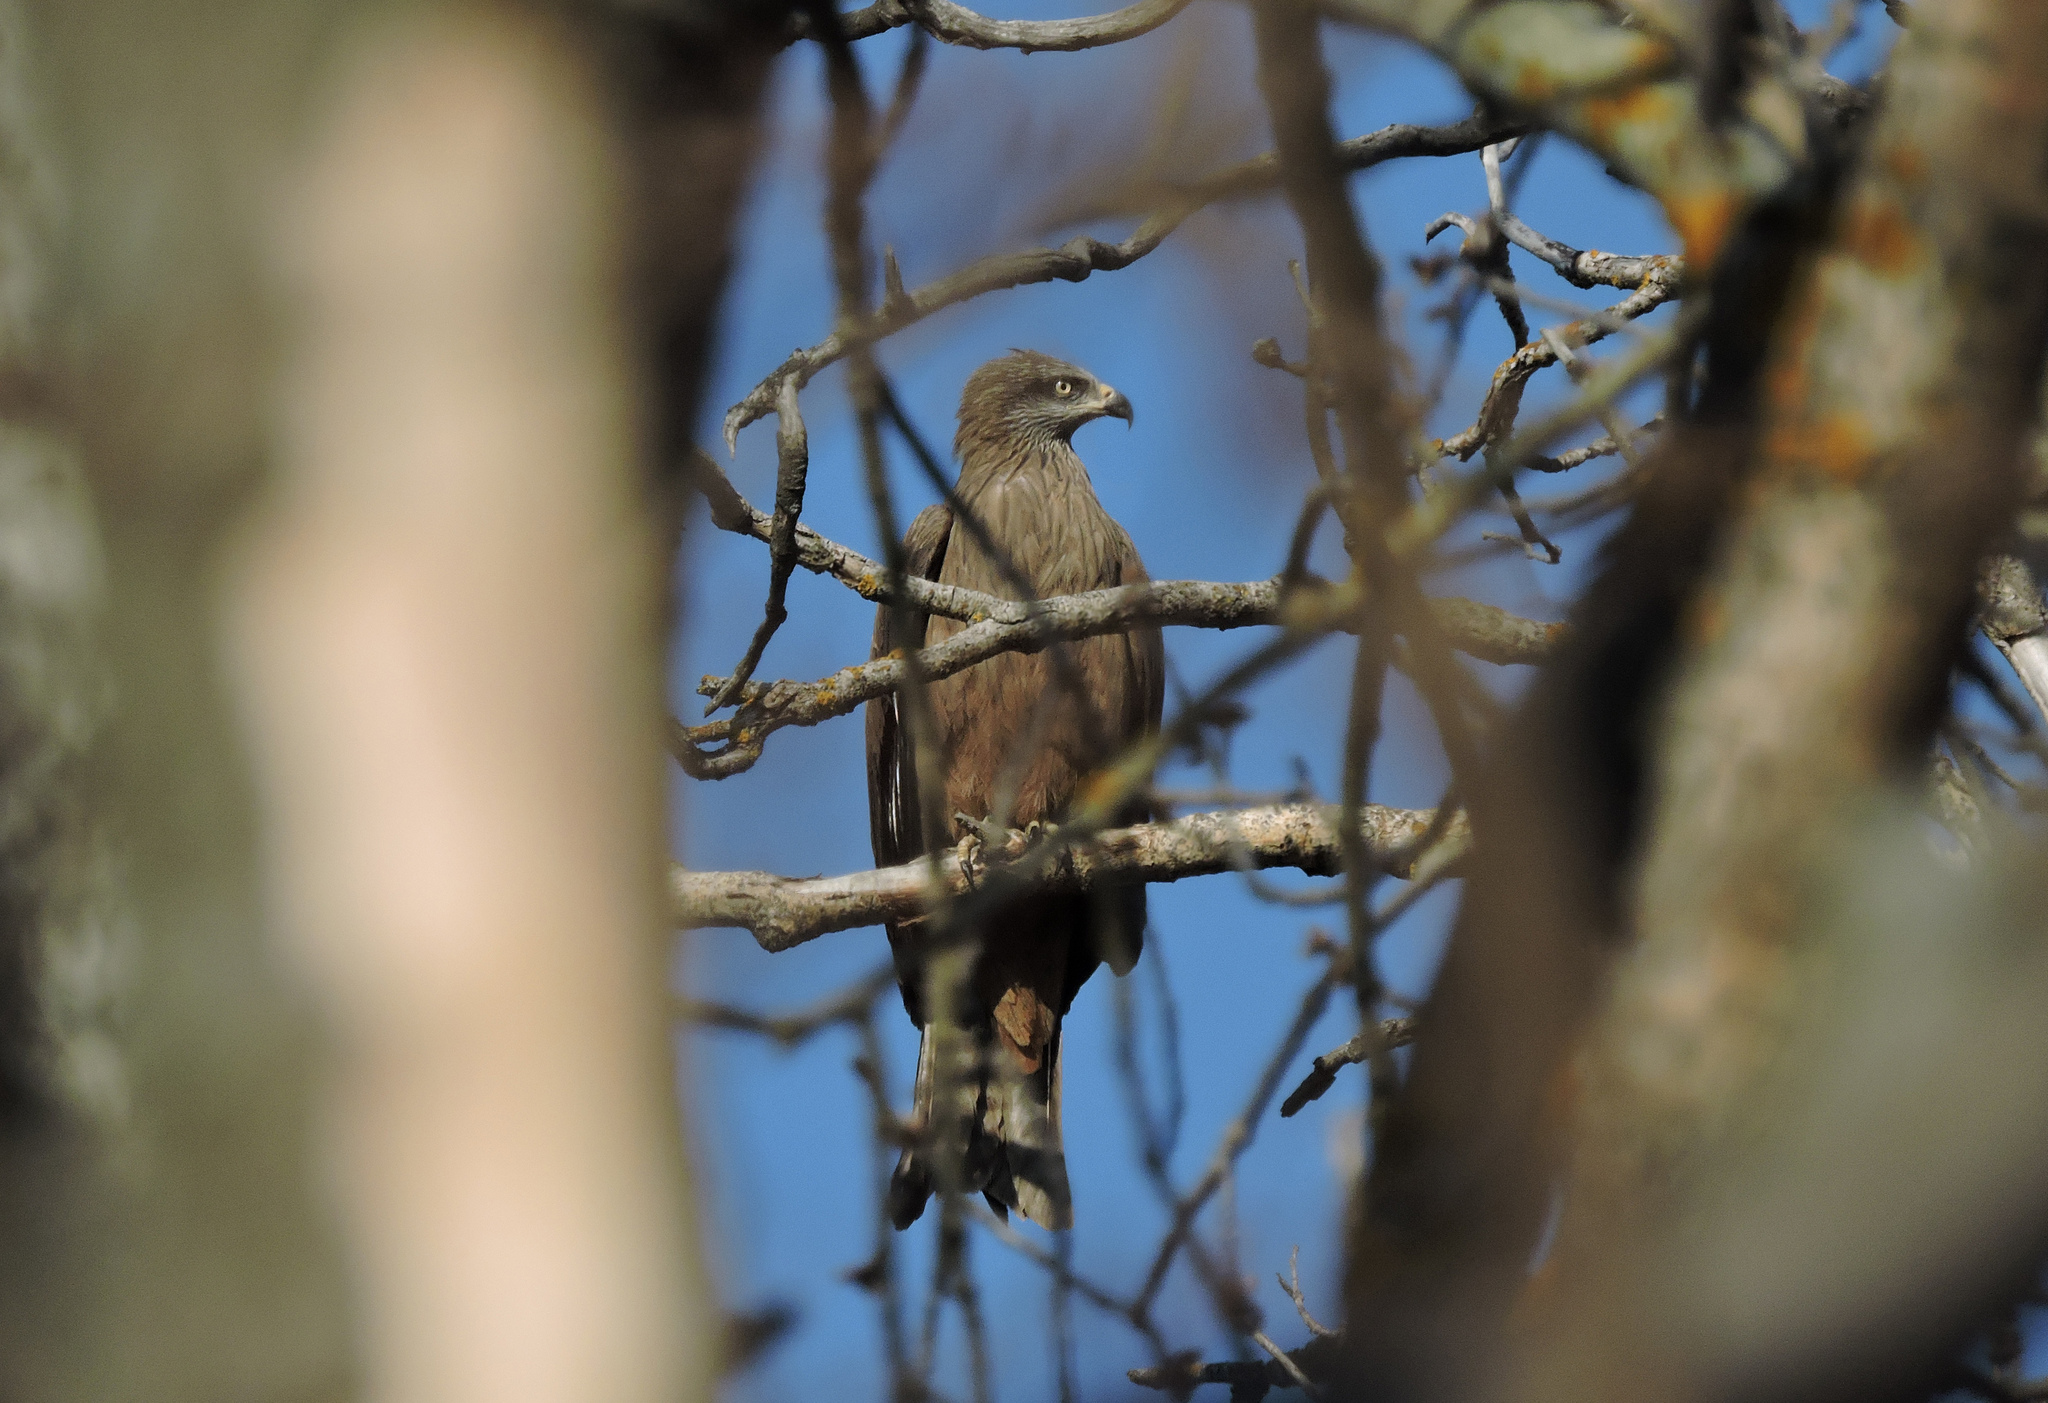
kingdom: Animalia
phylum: Chordata
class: Aves
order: Accipitriformes
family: Accipitridae
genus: Milvus
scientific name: Milvus migrans
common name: Black kite
